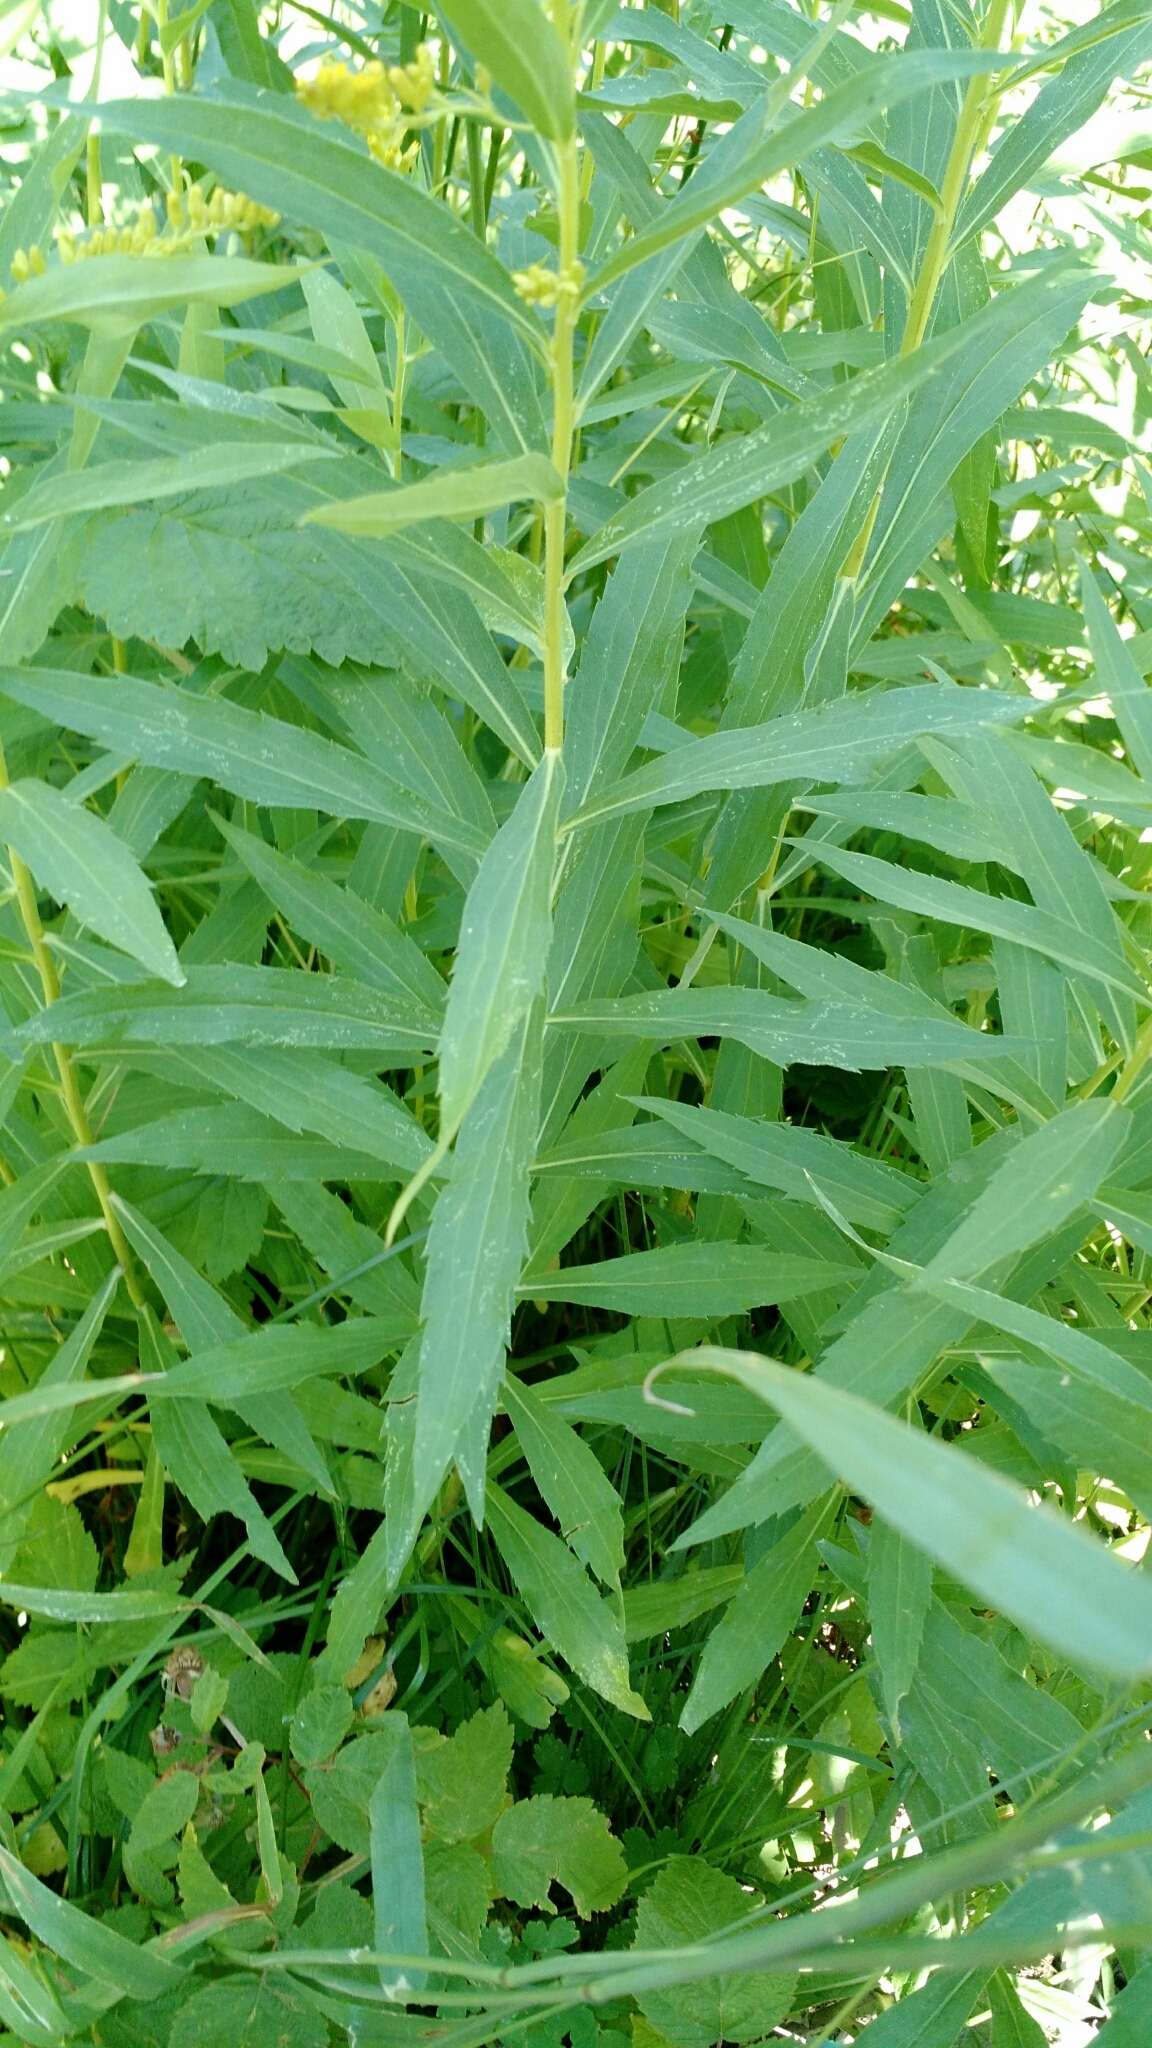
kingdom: Plantae
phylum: Tracheophyta
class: Magnoliopsida
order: Asterales
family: Asteraceae
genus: Solidago
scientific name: Solidago canadensis
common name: Canada goldenrod
